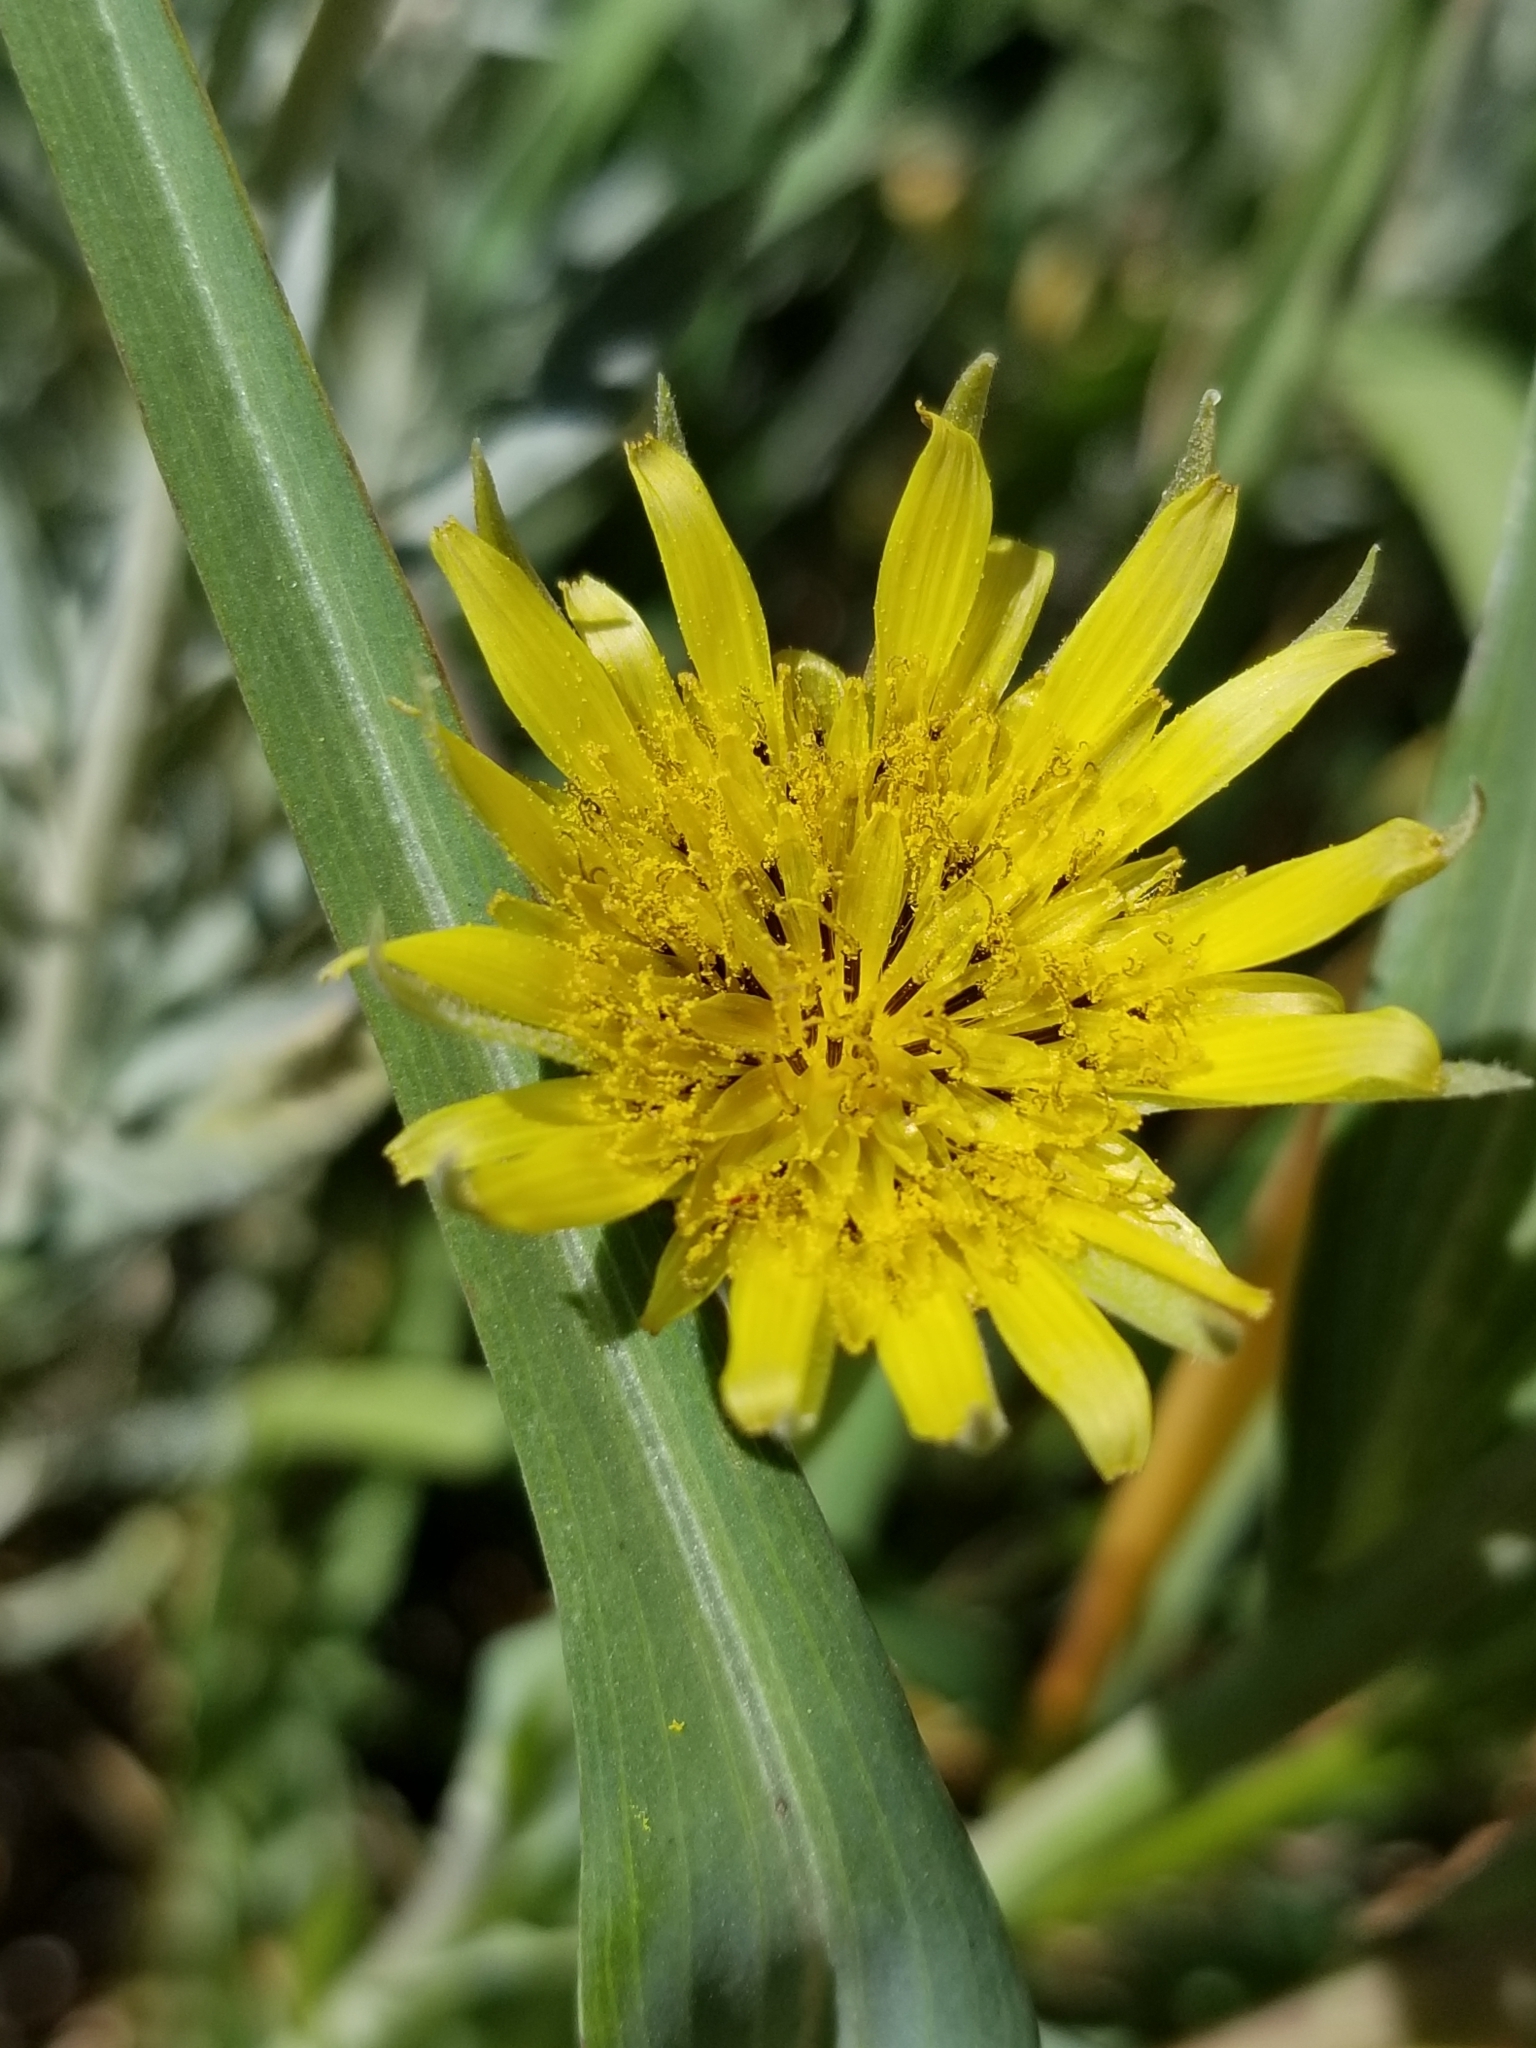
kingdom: Plantae
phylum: Tracheophyta
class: Magnoliopsida
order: Asterales
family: Asteraceae
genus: Tragopogon
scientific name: Tragopogon dubius
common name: Yellow salsify
